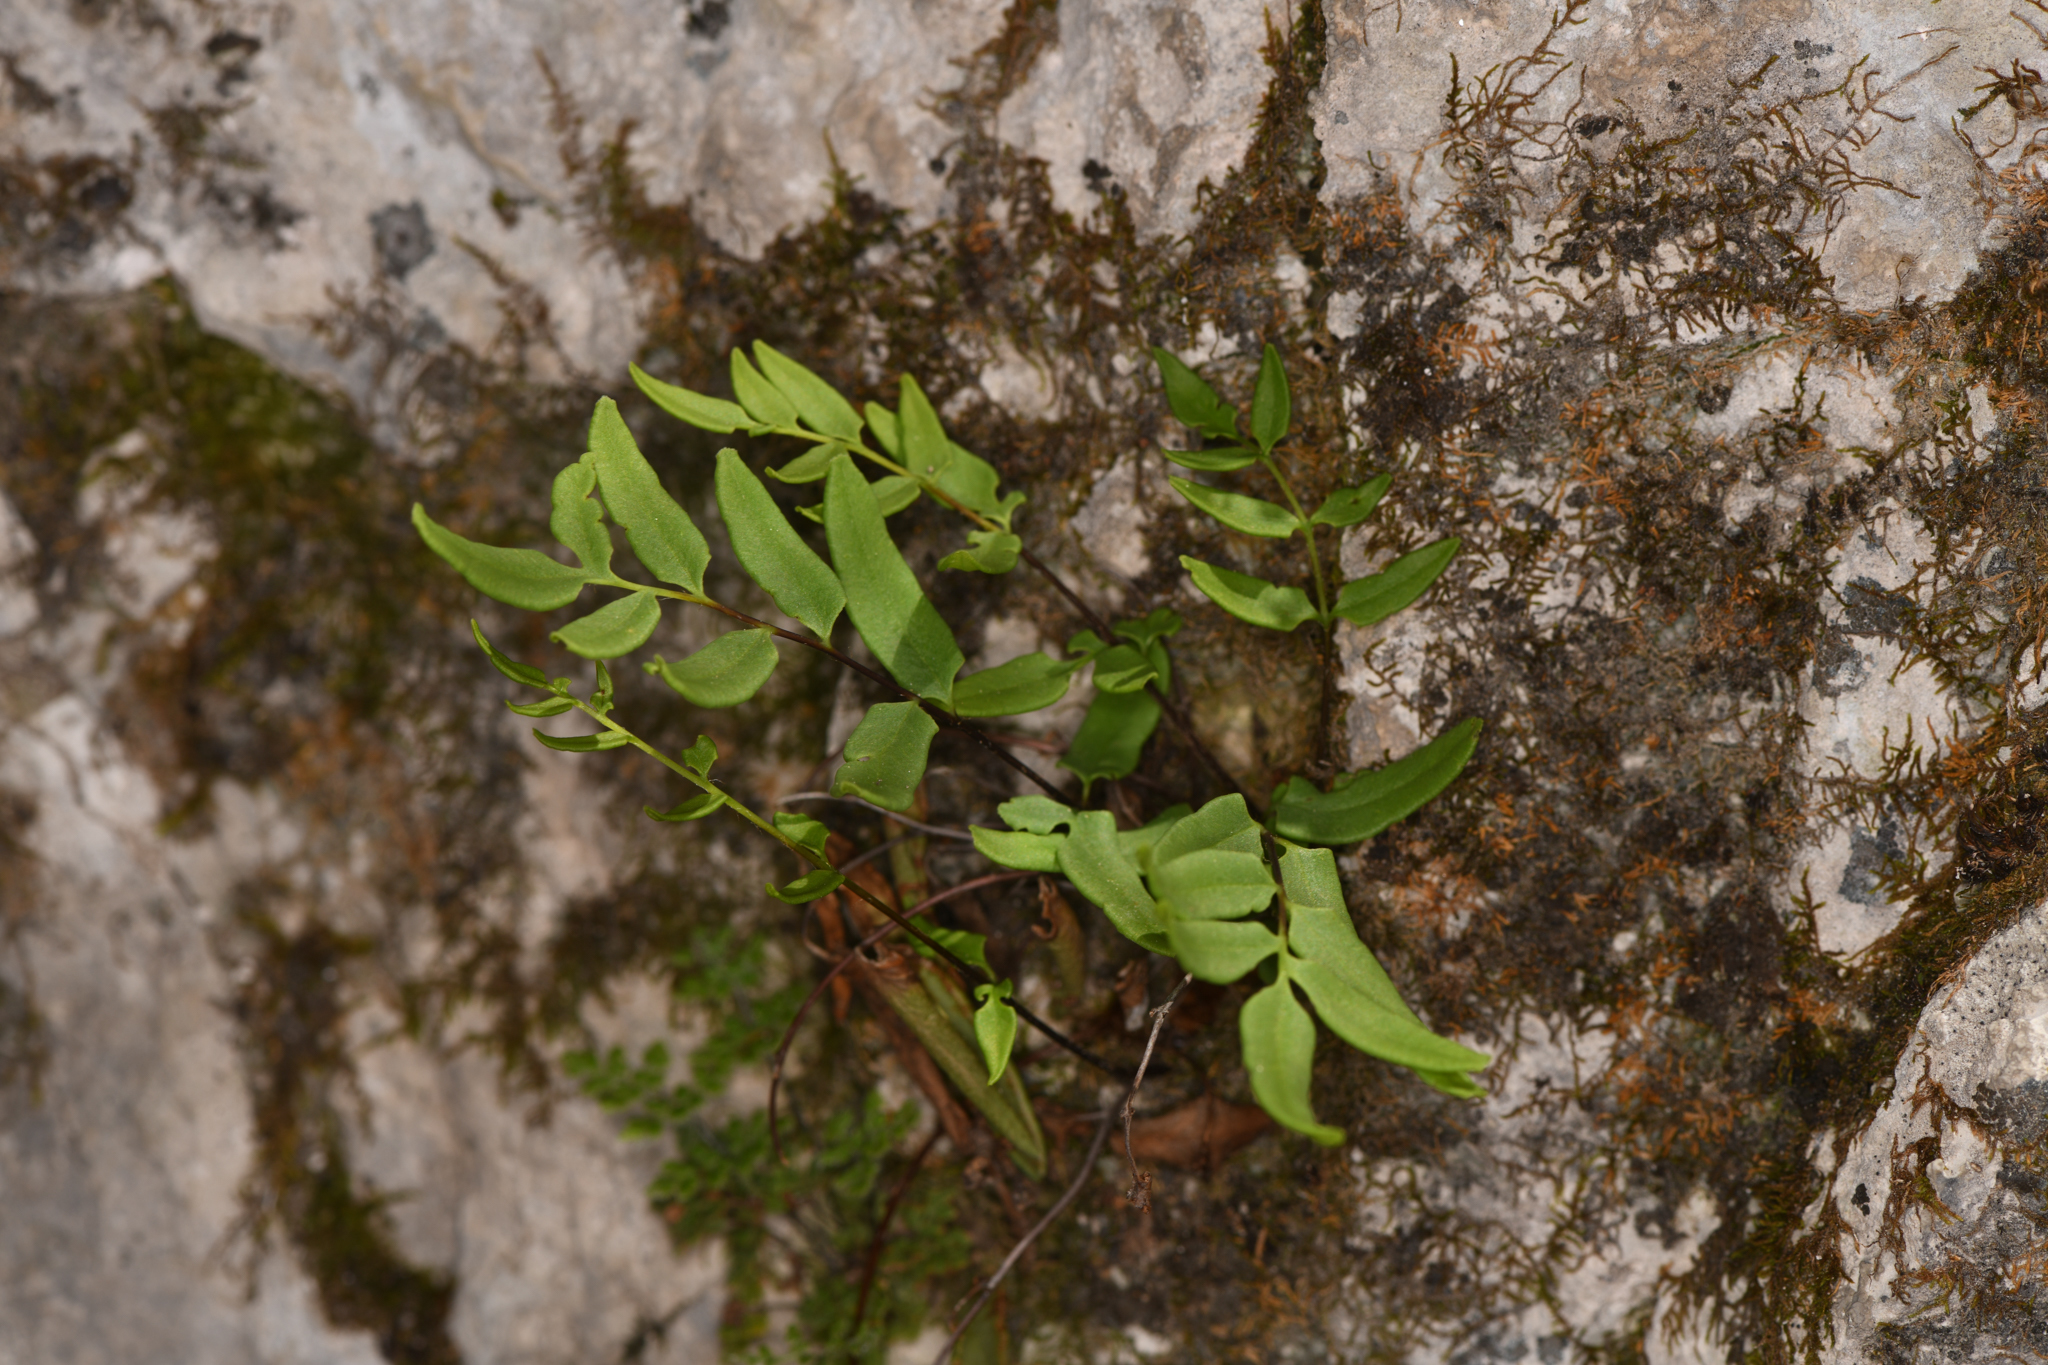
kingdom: Plantae
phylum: Tracheophyta
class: Polypodiopsida
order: Polypodiales
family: Pteridaceae
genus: Pellaea
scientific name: Pellaea glabella
